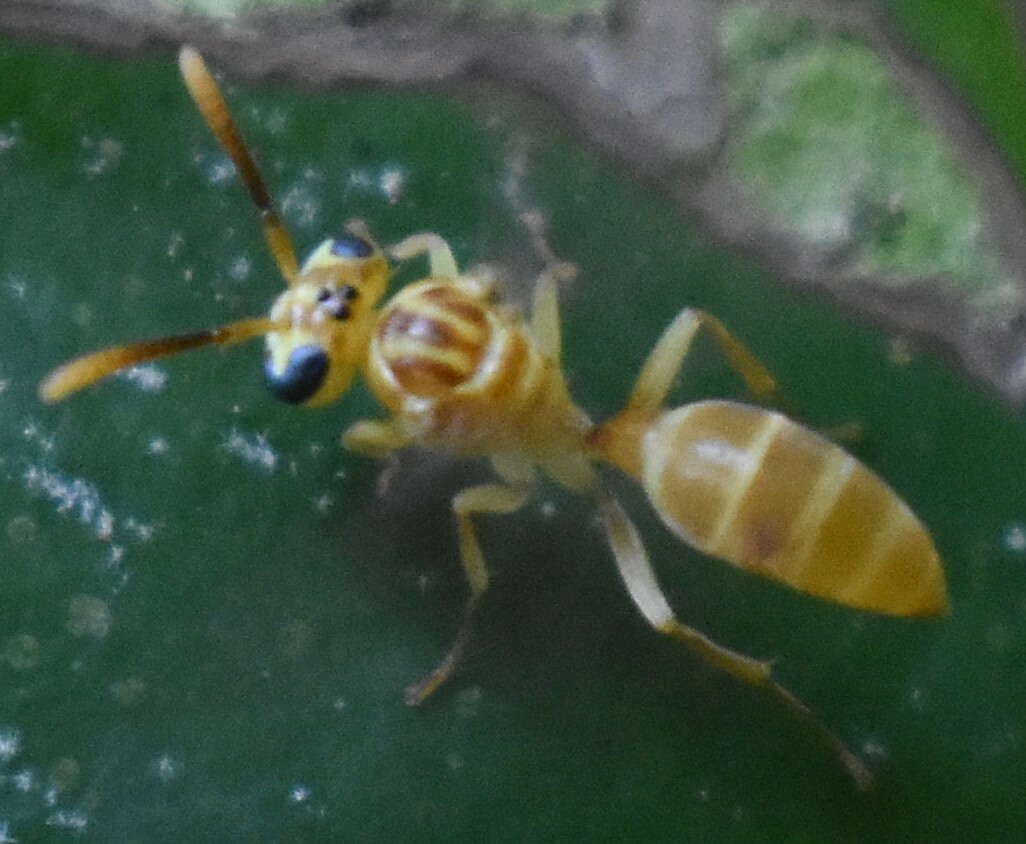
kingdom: Animalia
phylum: Arthropoda
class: Insecta
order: Hymenoptera
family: Vespidae
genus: Leipomeles
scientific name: Leipomeles dorsata
